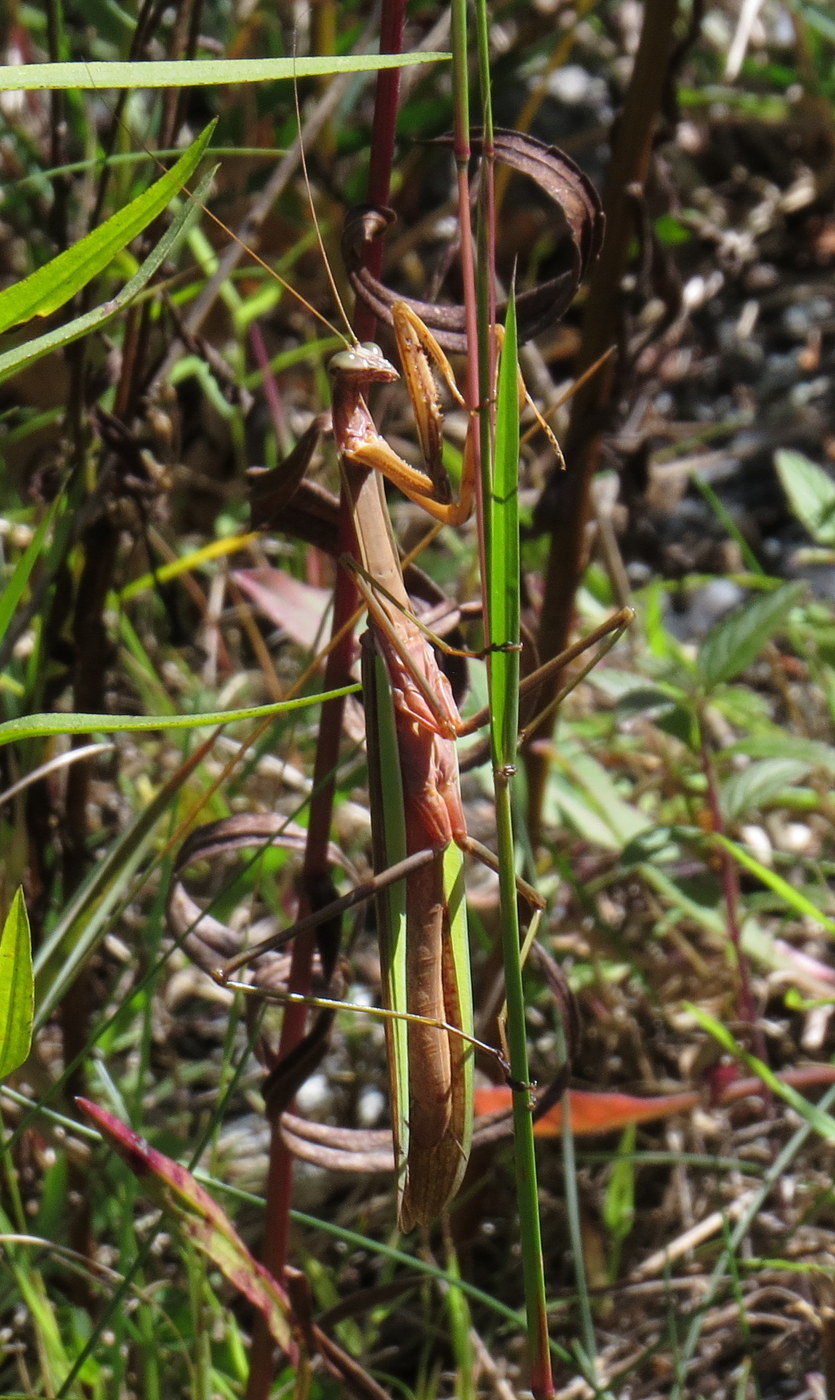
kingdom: Animalia
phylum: Arthropoda
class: Insecta
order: Mantodea
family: Mantidae
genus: Tenodera
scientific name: Tenodera sinensis
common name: Chinese mantis
